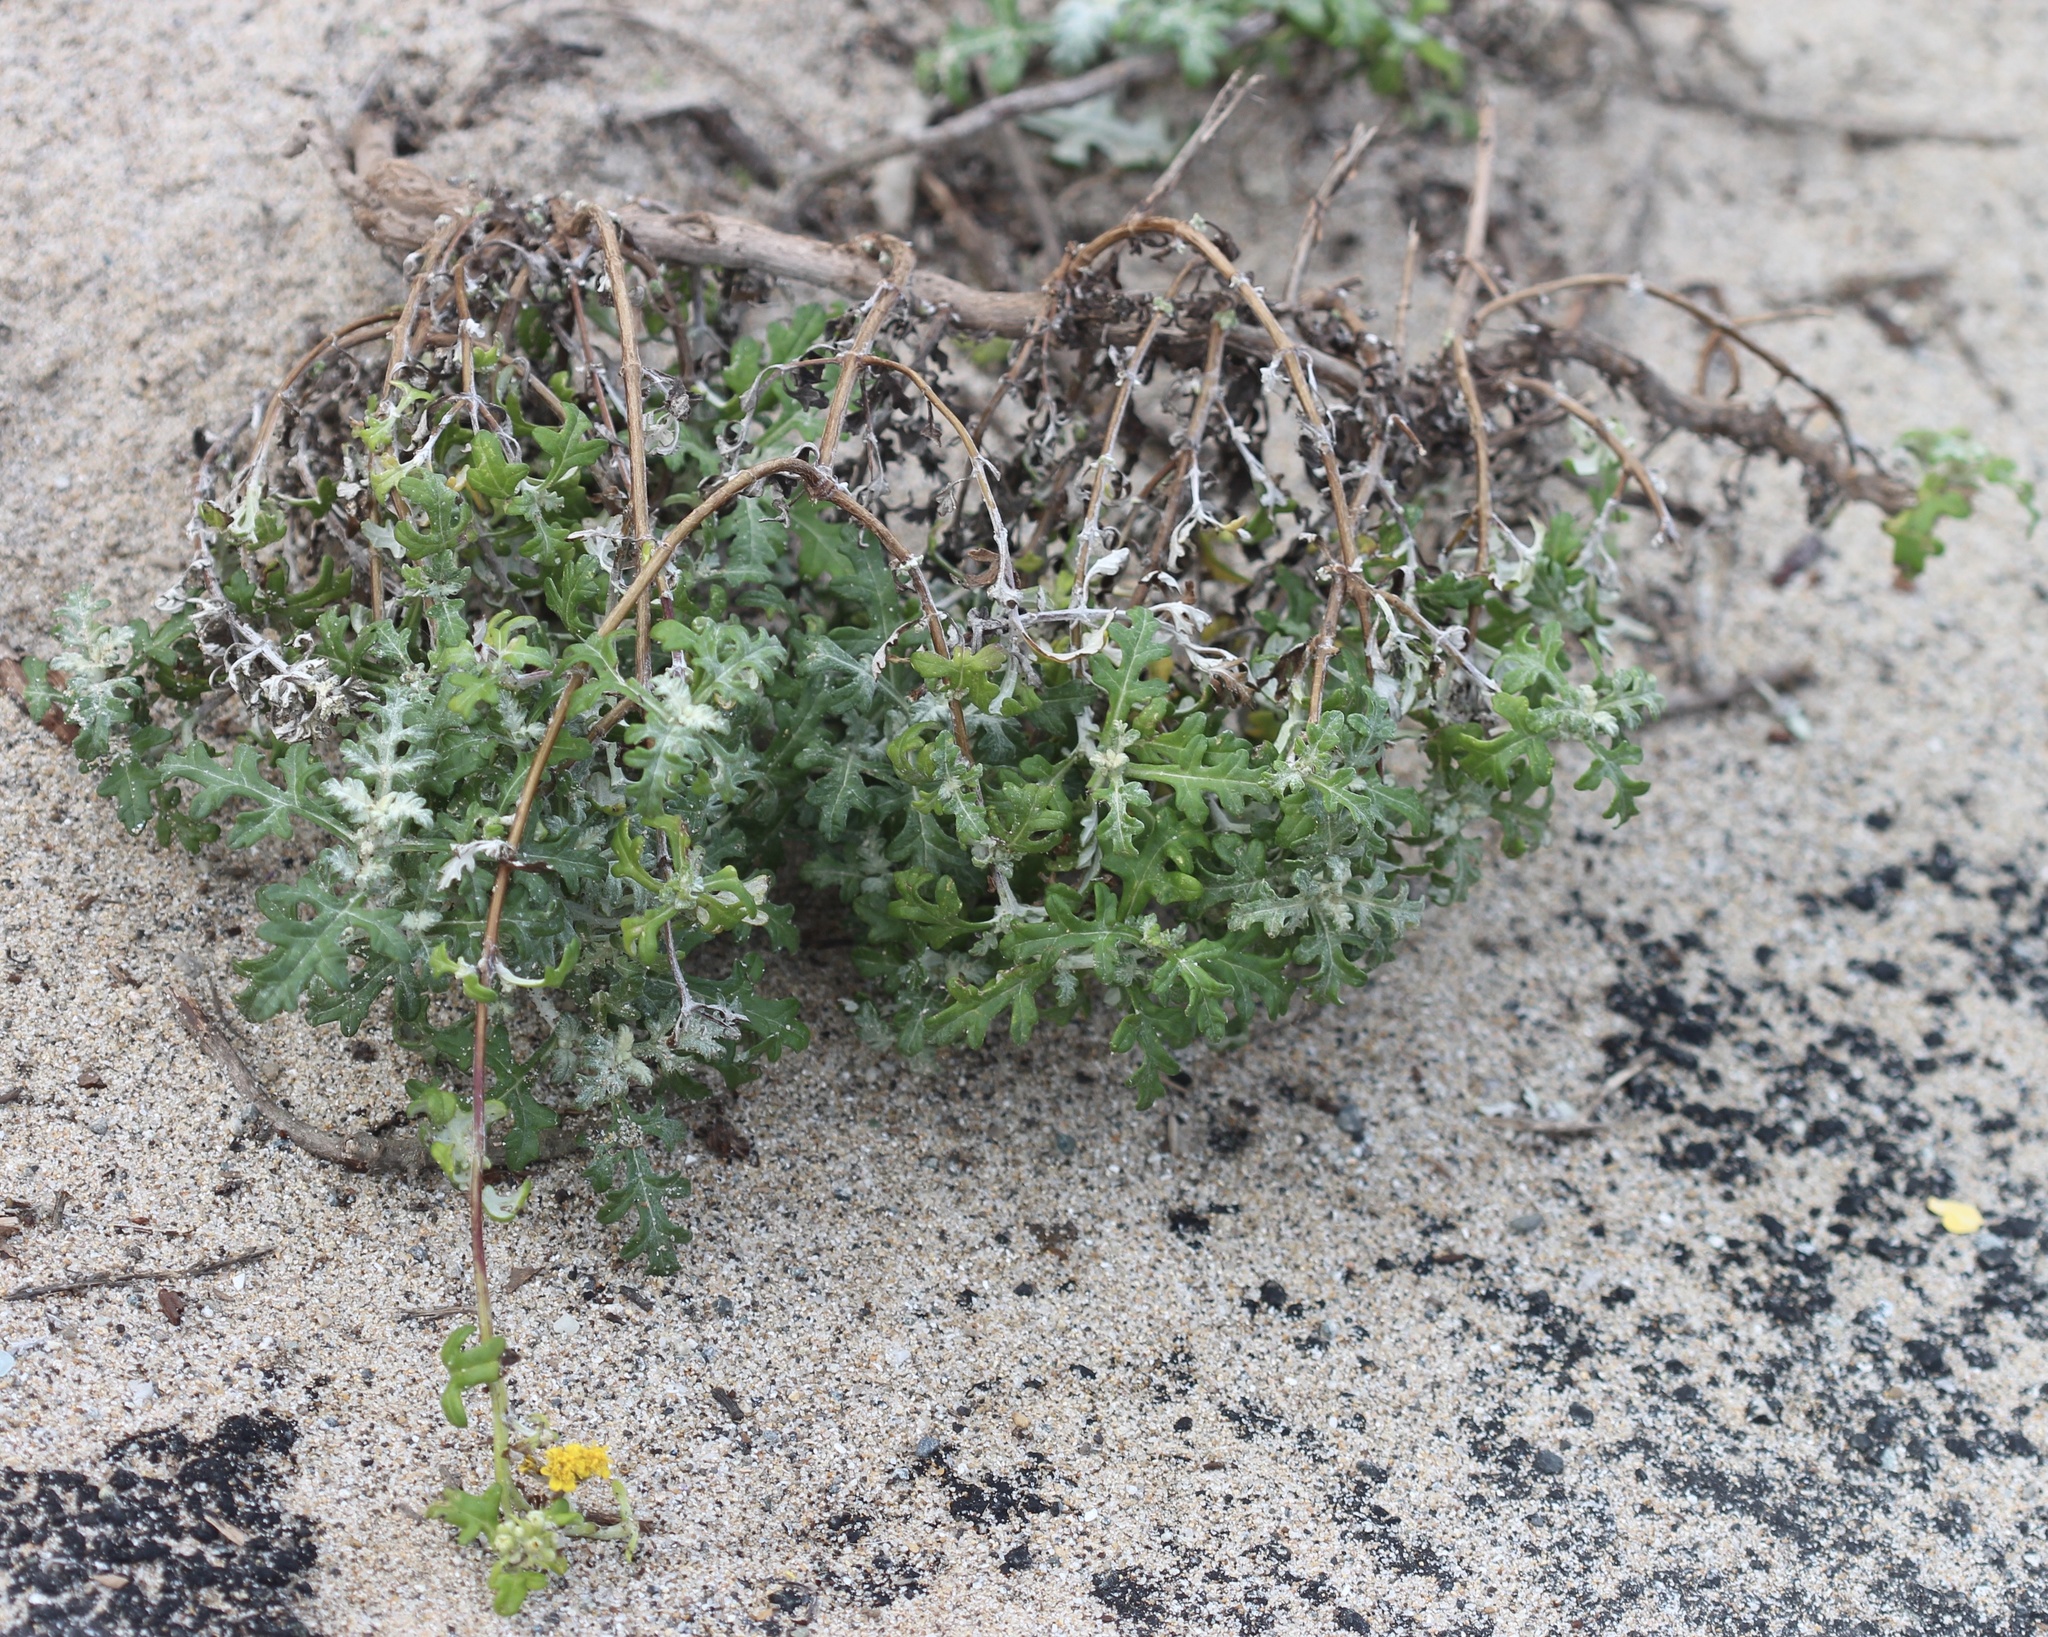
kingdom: Plantae
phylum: Tracheophyta
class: Magnoliopsida
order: Asterales
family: Asteraceae
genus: Eriophyllum
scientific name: Eriophyllum staechadifolium
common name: Lizardtail
